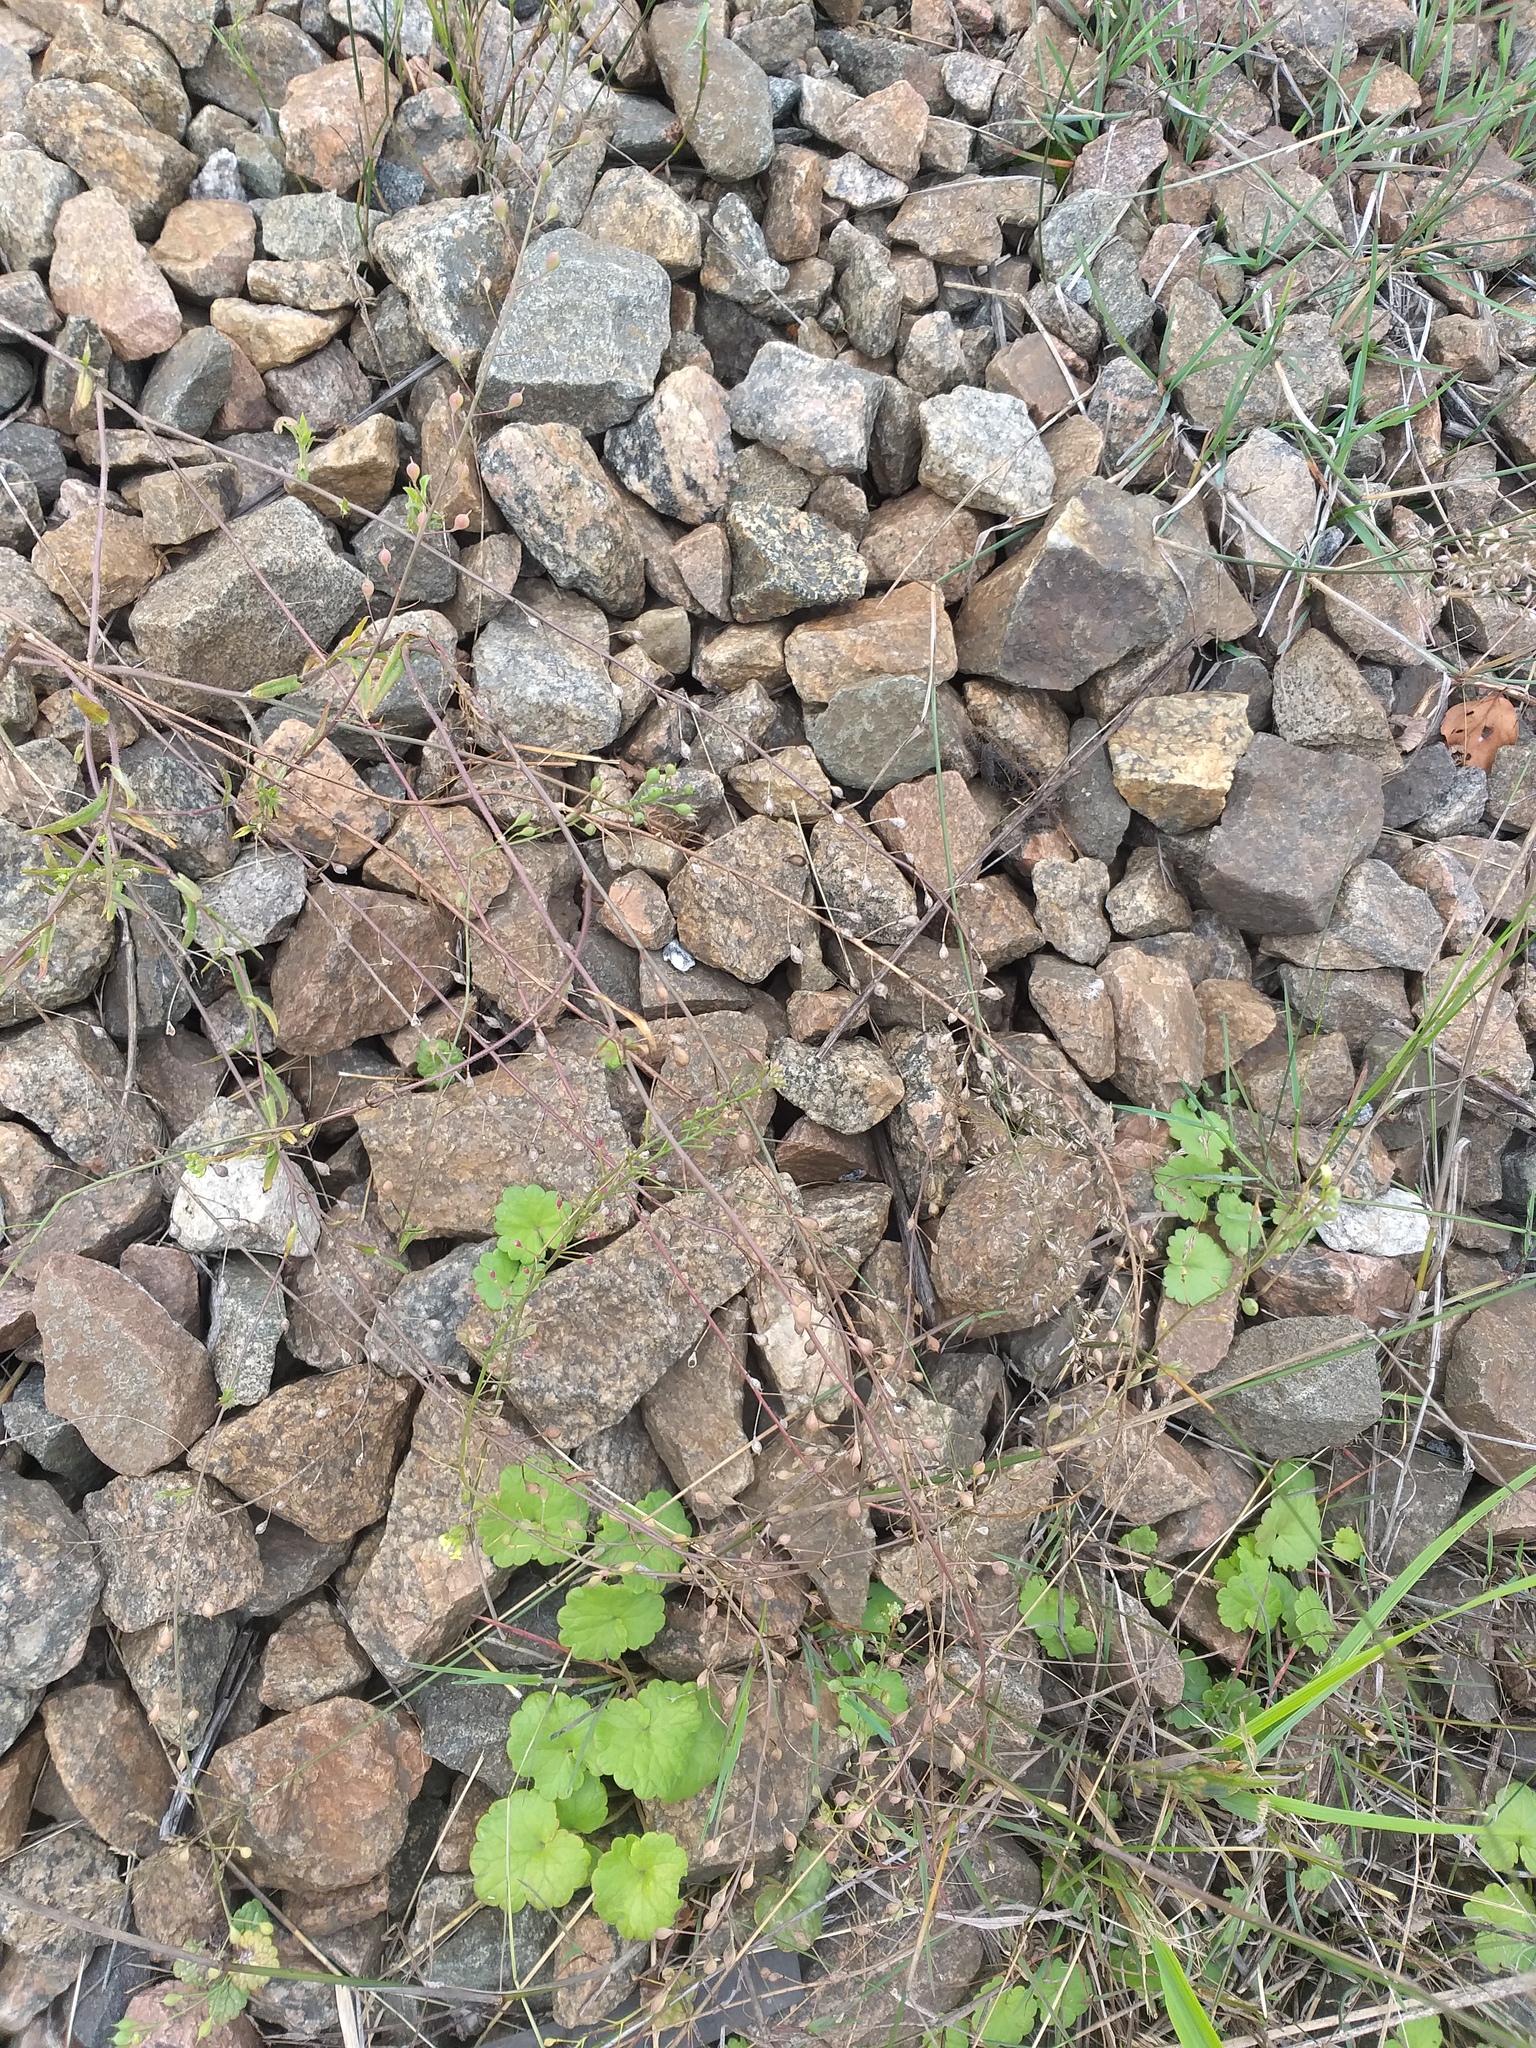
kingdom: Plantae
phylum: Tracheophyta
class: Magnoliopsida
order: Brassicales
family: Brassicaceae
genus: Camelina
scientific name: Camelina microcarpa
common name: Lesser gold-of-pleasure
